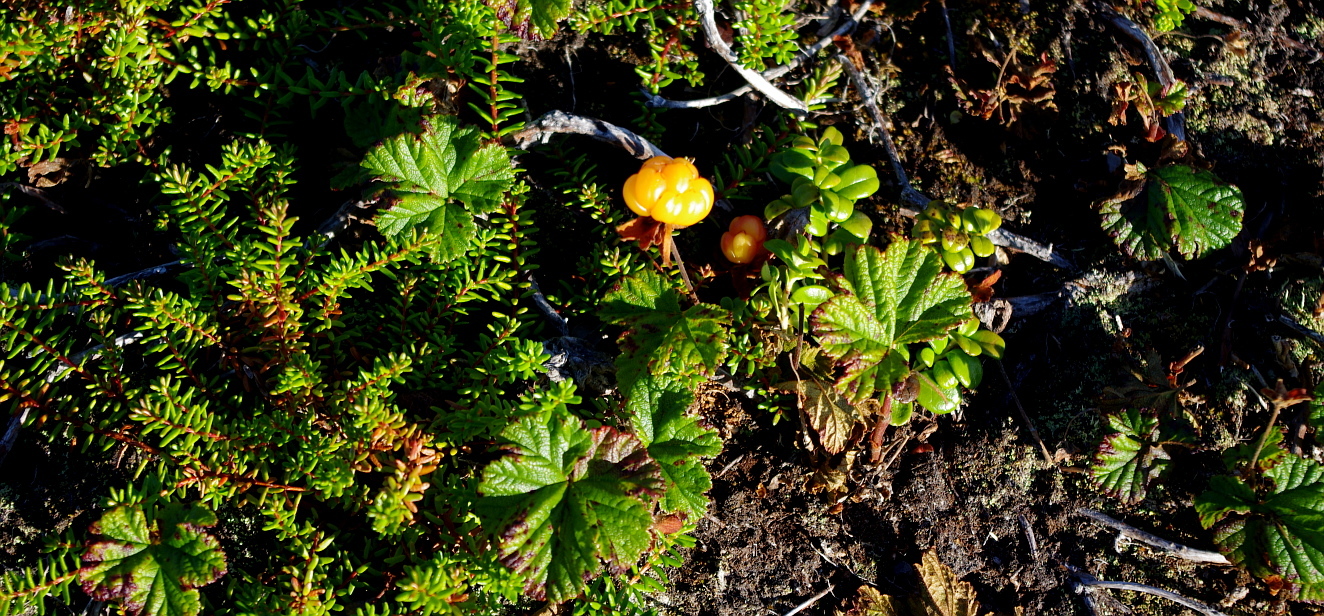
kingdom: Plantae
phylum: Tracheophyta
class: Magnoliopsida
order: Rosales
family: Rosaceae
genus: Rubus
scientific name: Rubus chamaemorus
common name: Cloudberry
